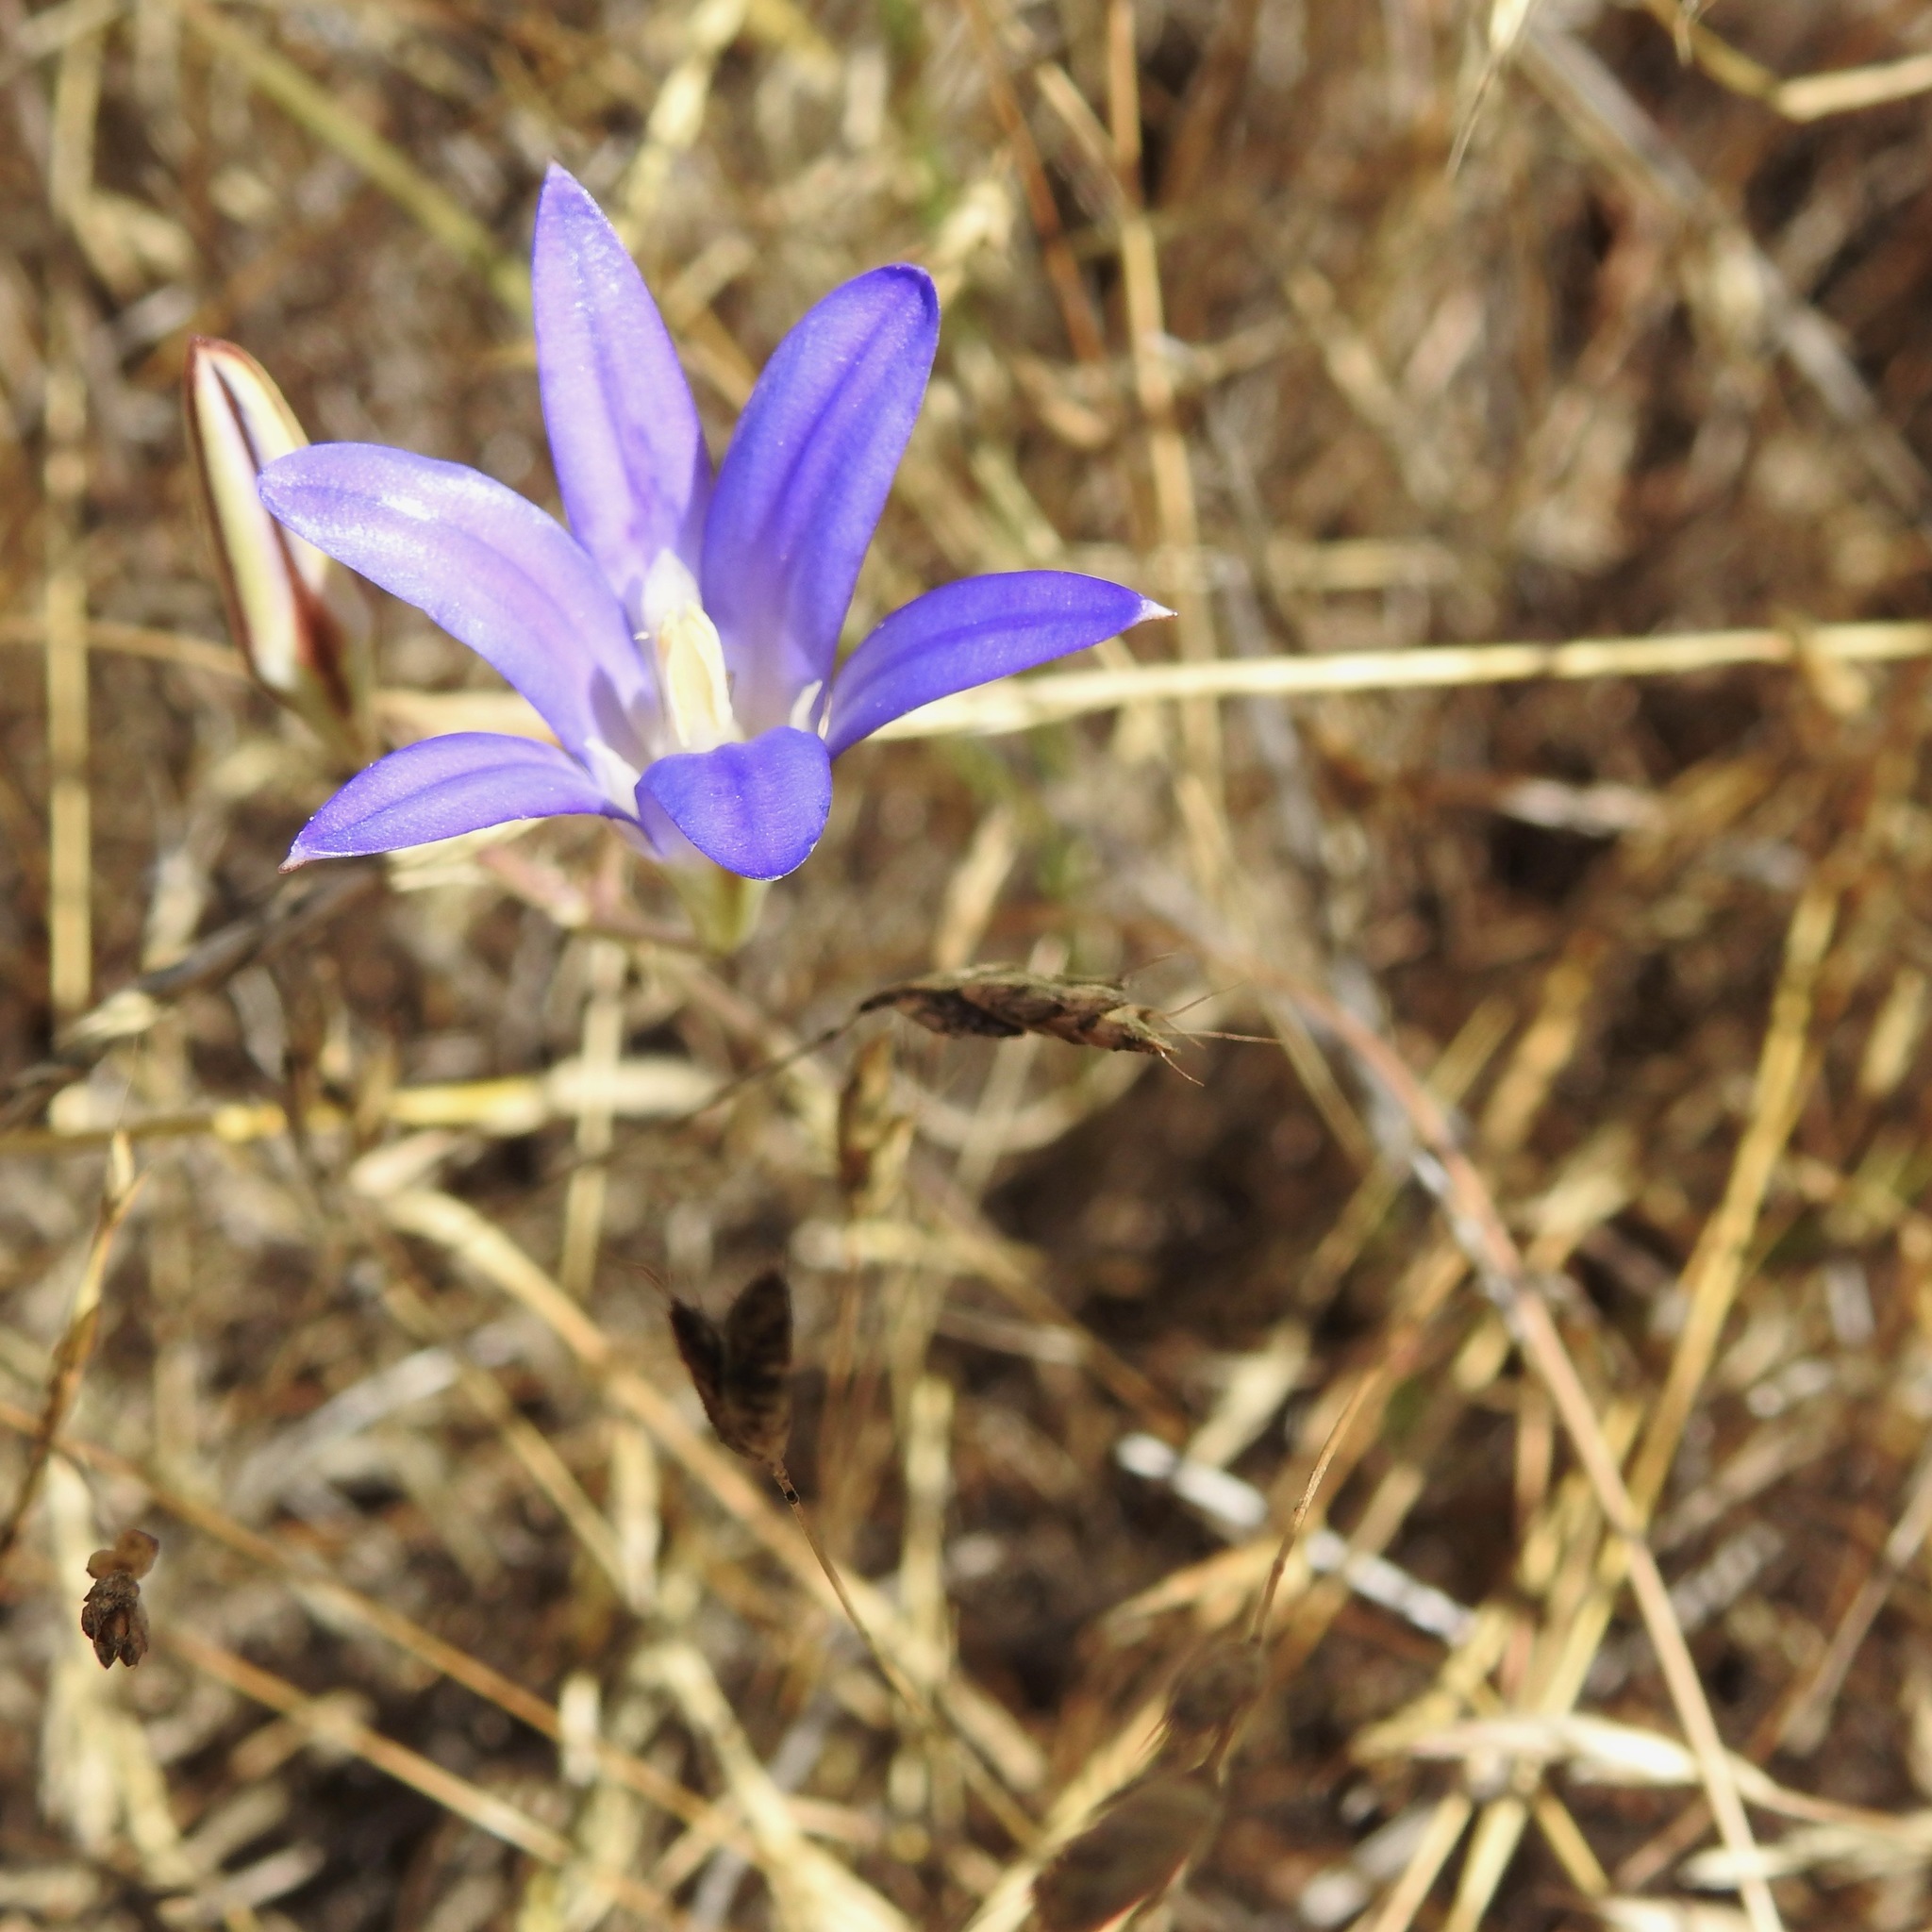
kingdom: Plantae
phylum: Tracheophyta
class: Liliopsida
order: Asparagales
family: Asparagaceae
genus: Brodiaea
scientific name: Brodiaea elegans
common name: Elegant cluster-lily
